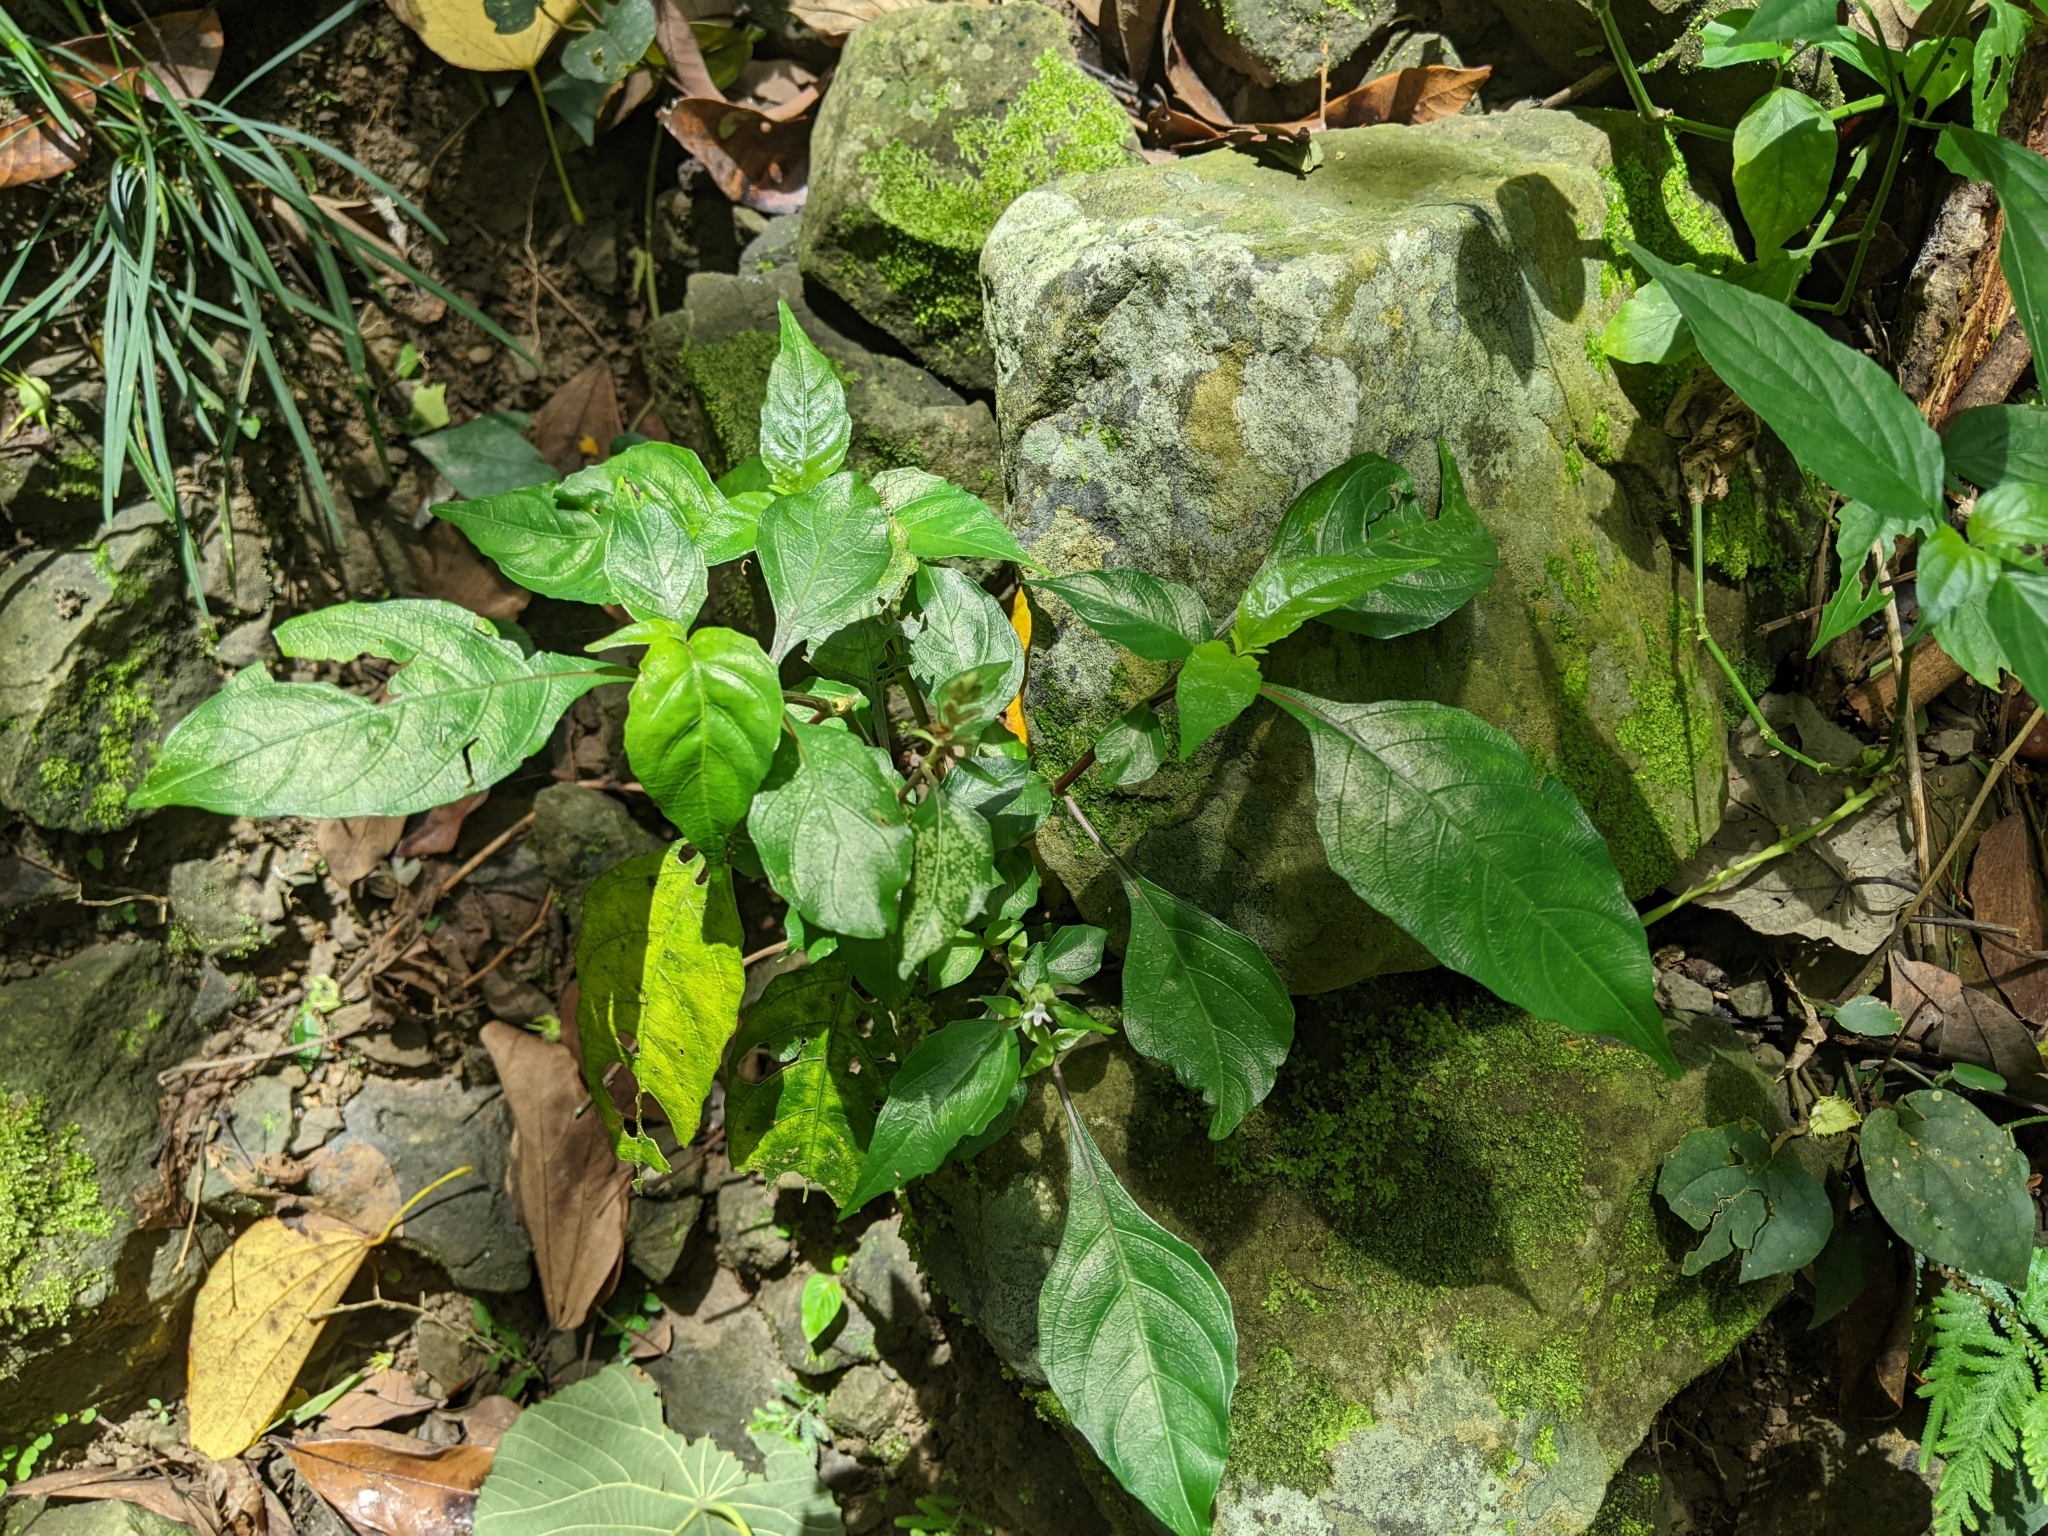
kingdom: Plantae
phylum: Tracheophyta
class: Magnoliopsida
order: Lamiales
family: Acanthaceae
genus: Lepidagathis
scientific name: Lepidagathis formosensis
